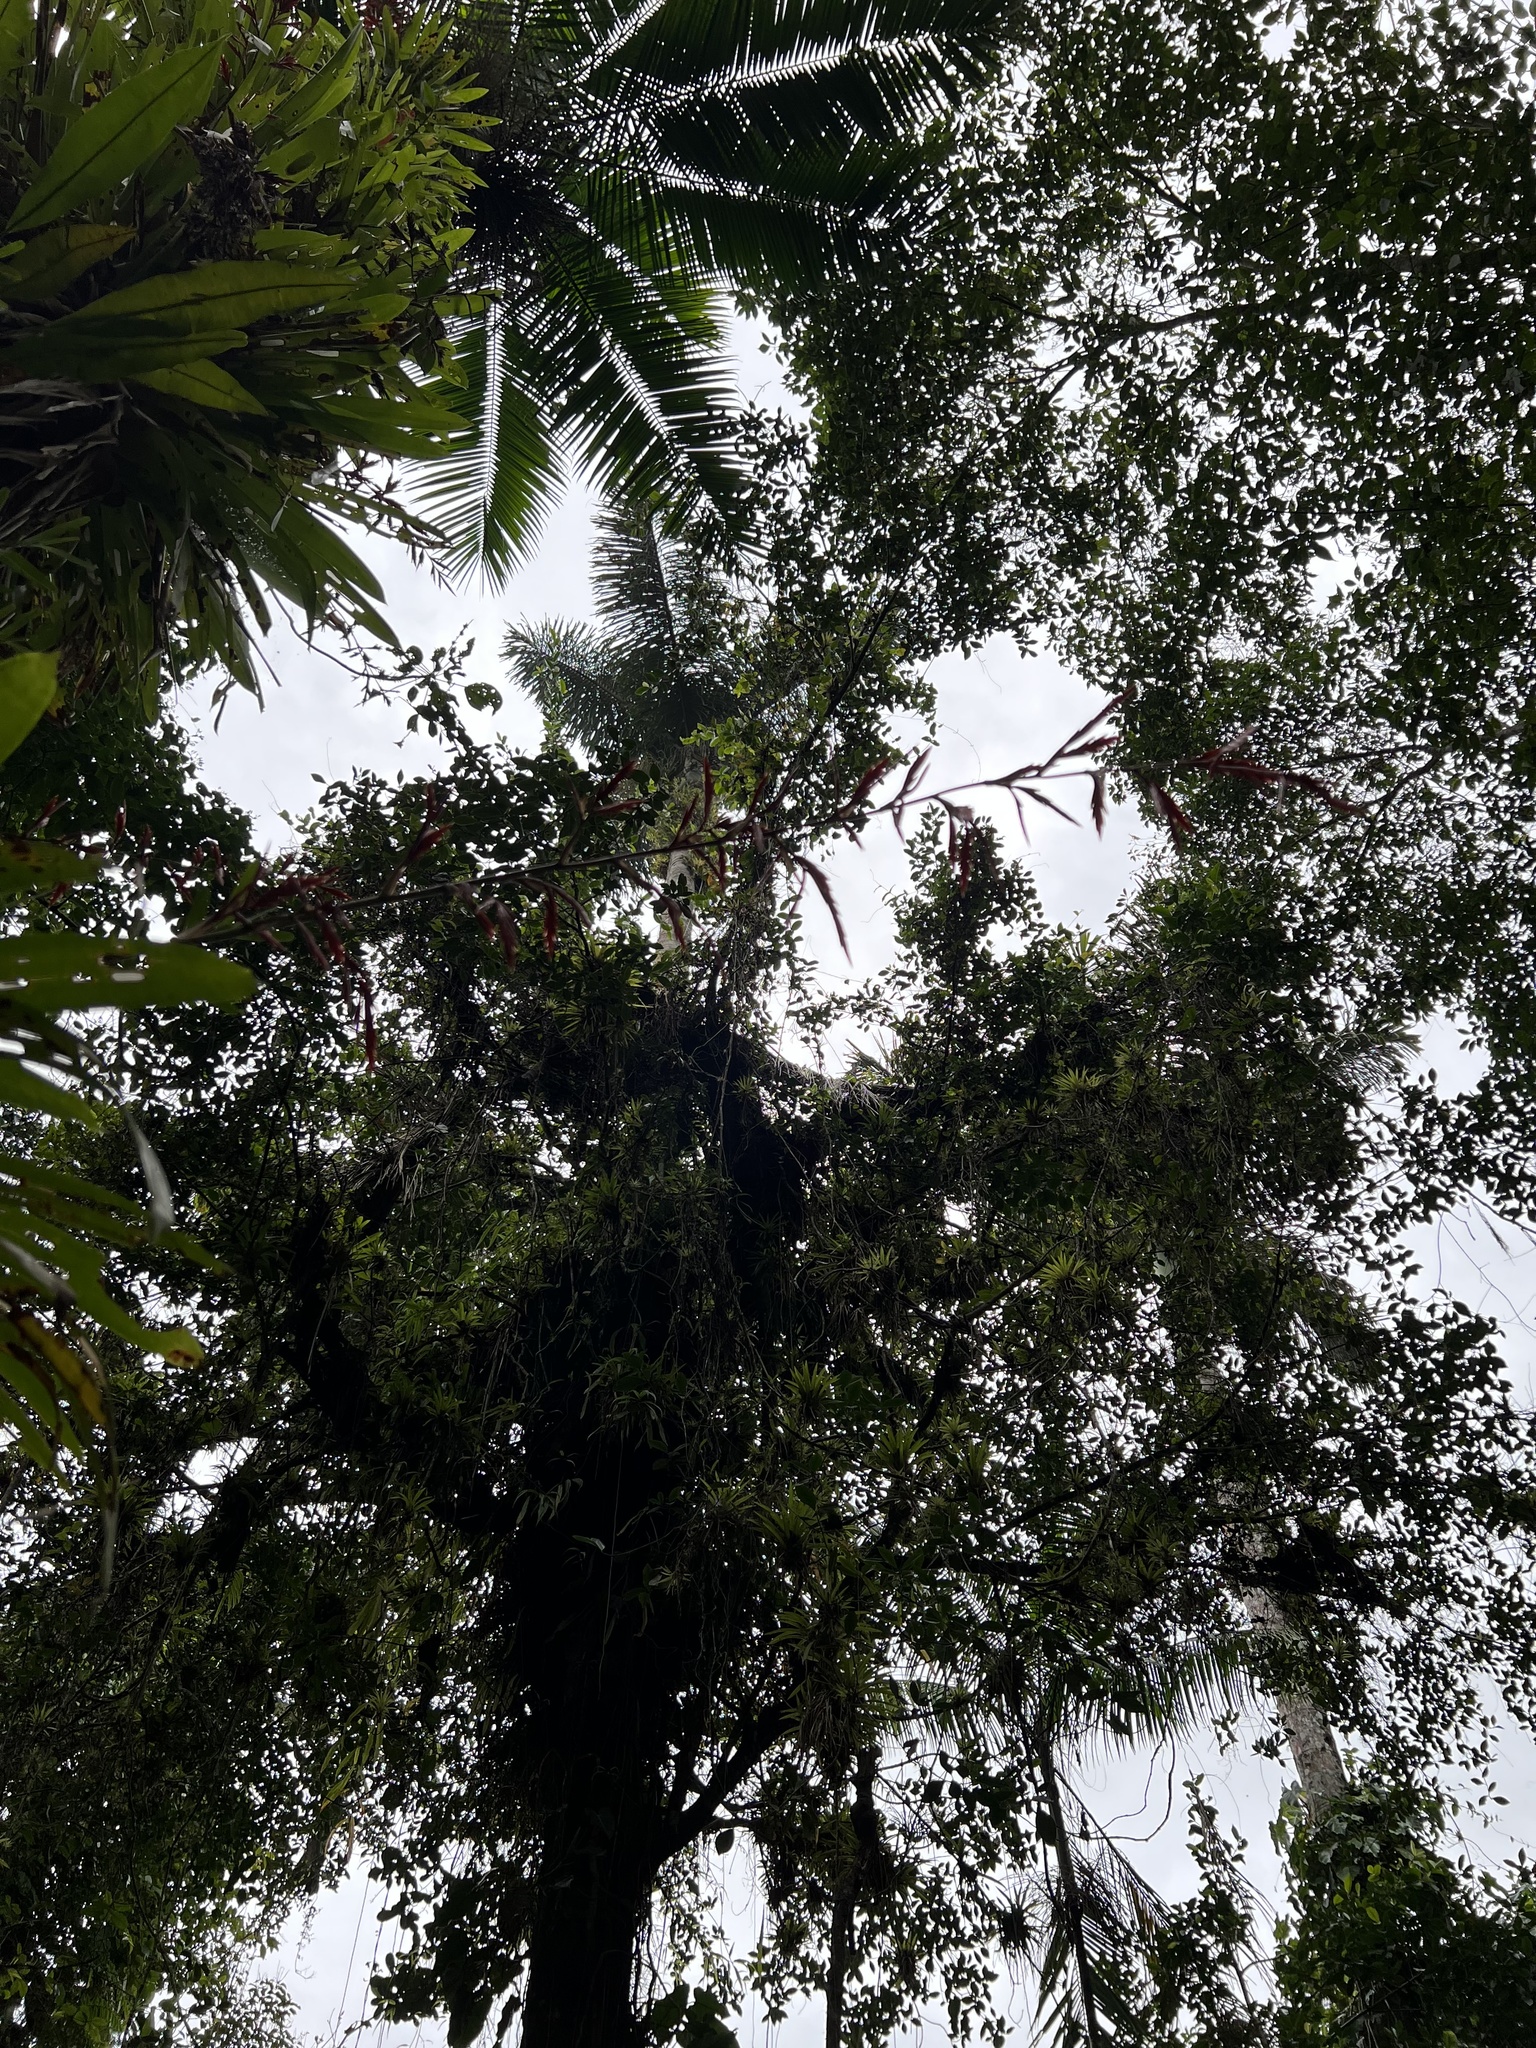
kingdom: Plantae
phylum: Tracheophyta
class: Liliopsida
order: Poales
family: Bromeliaceae
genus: Vriesea
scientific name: Vriesea elata
